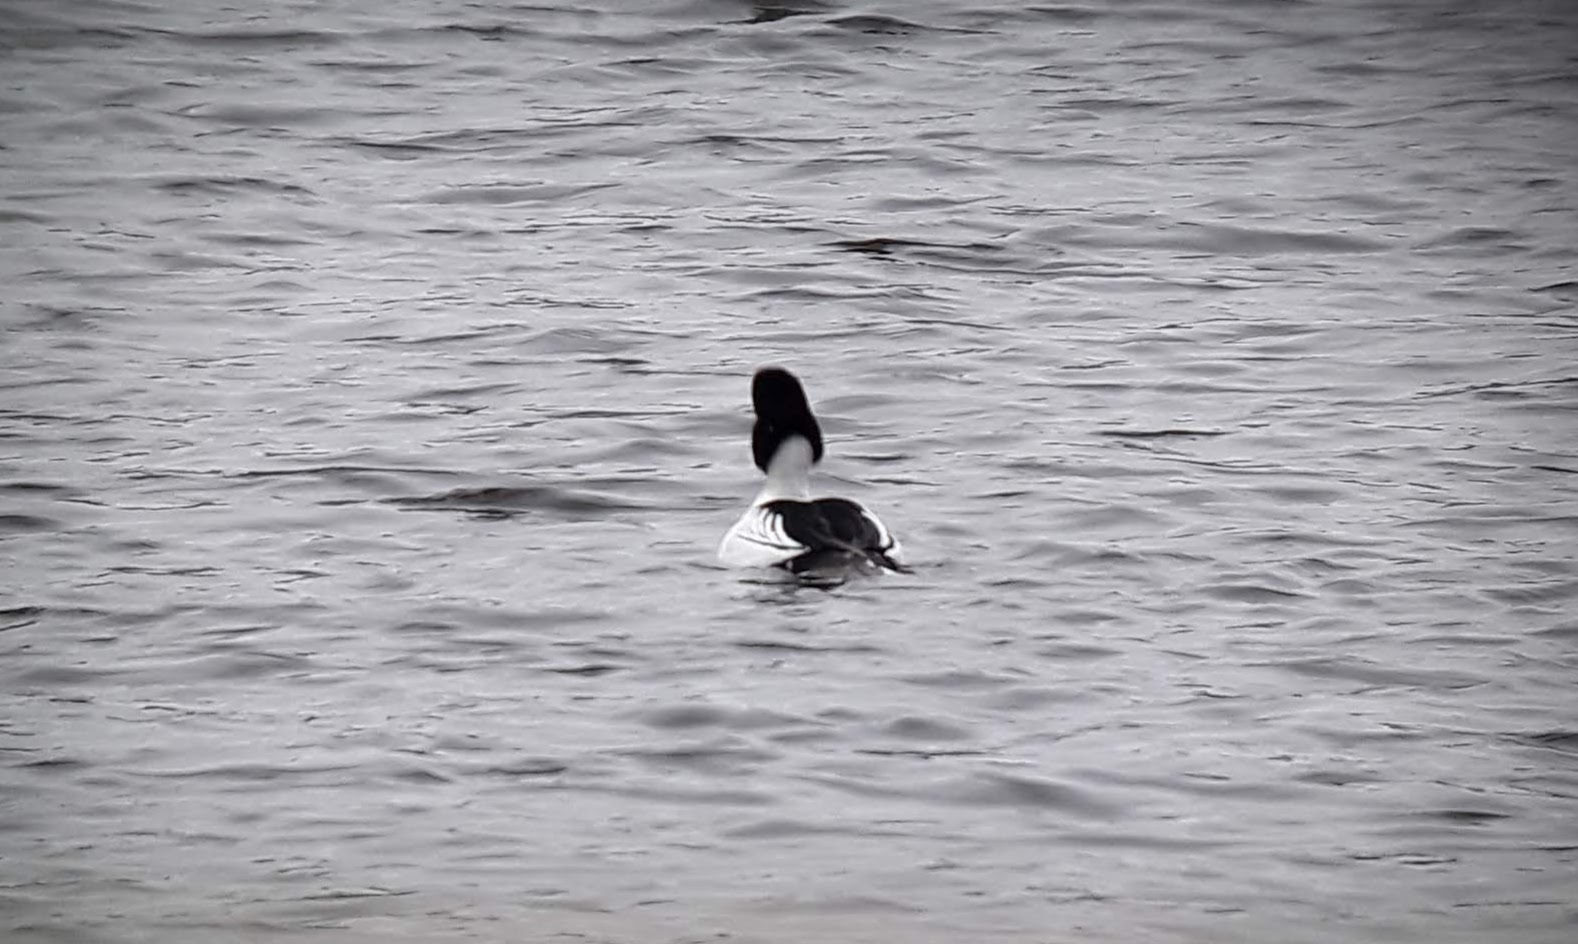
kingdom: Animalia
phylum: Chordata
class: Aves
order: Anseriformes
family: Anatidae
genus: Bucephala
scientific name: Bucephala clangula
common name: Common goldeneye
